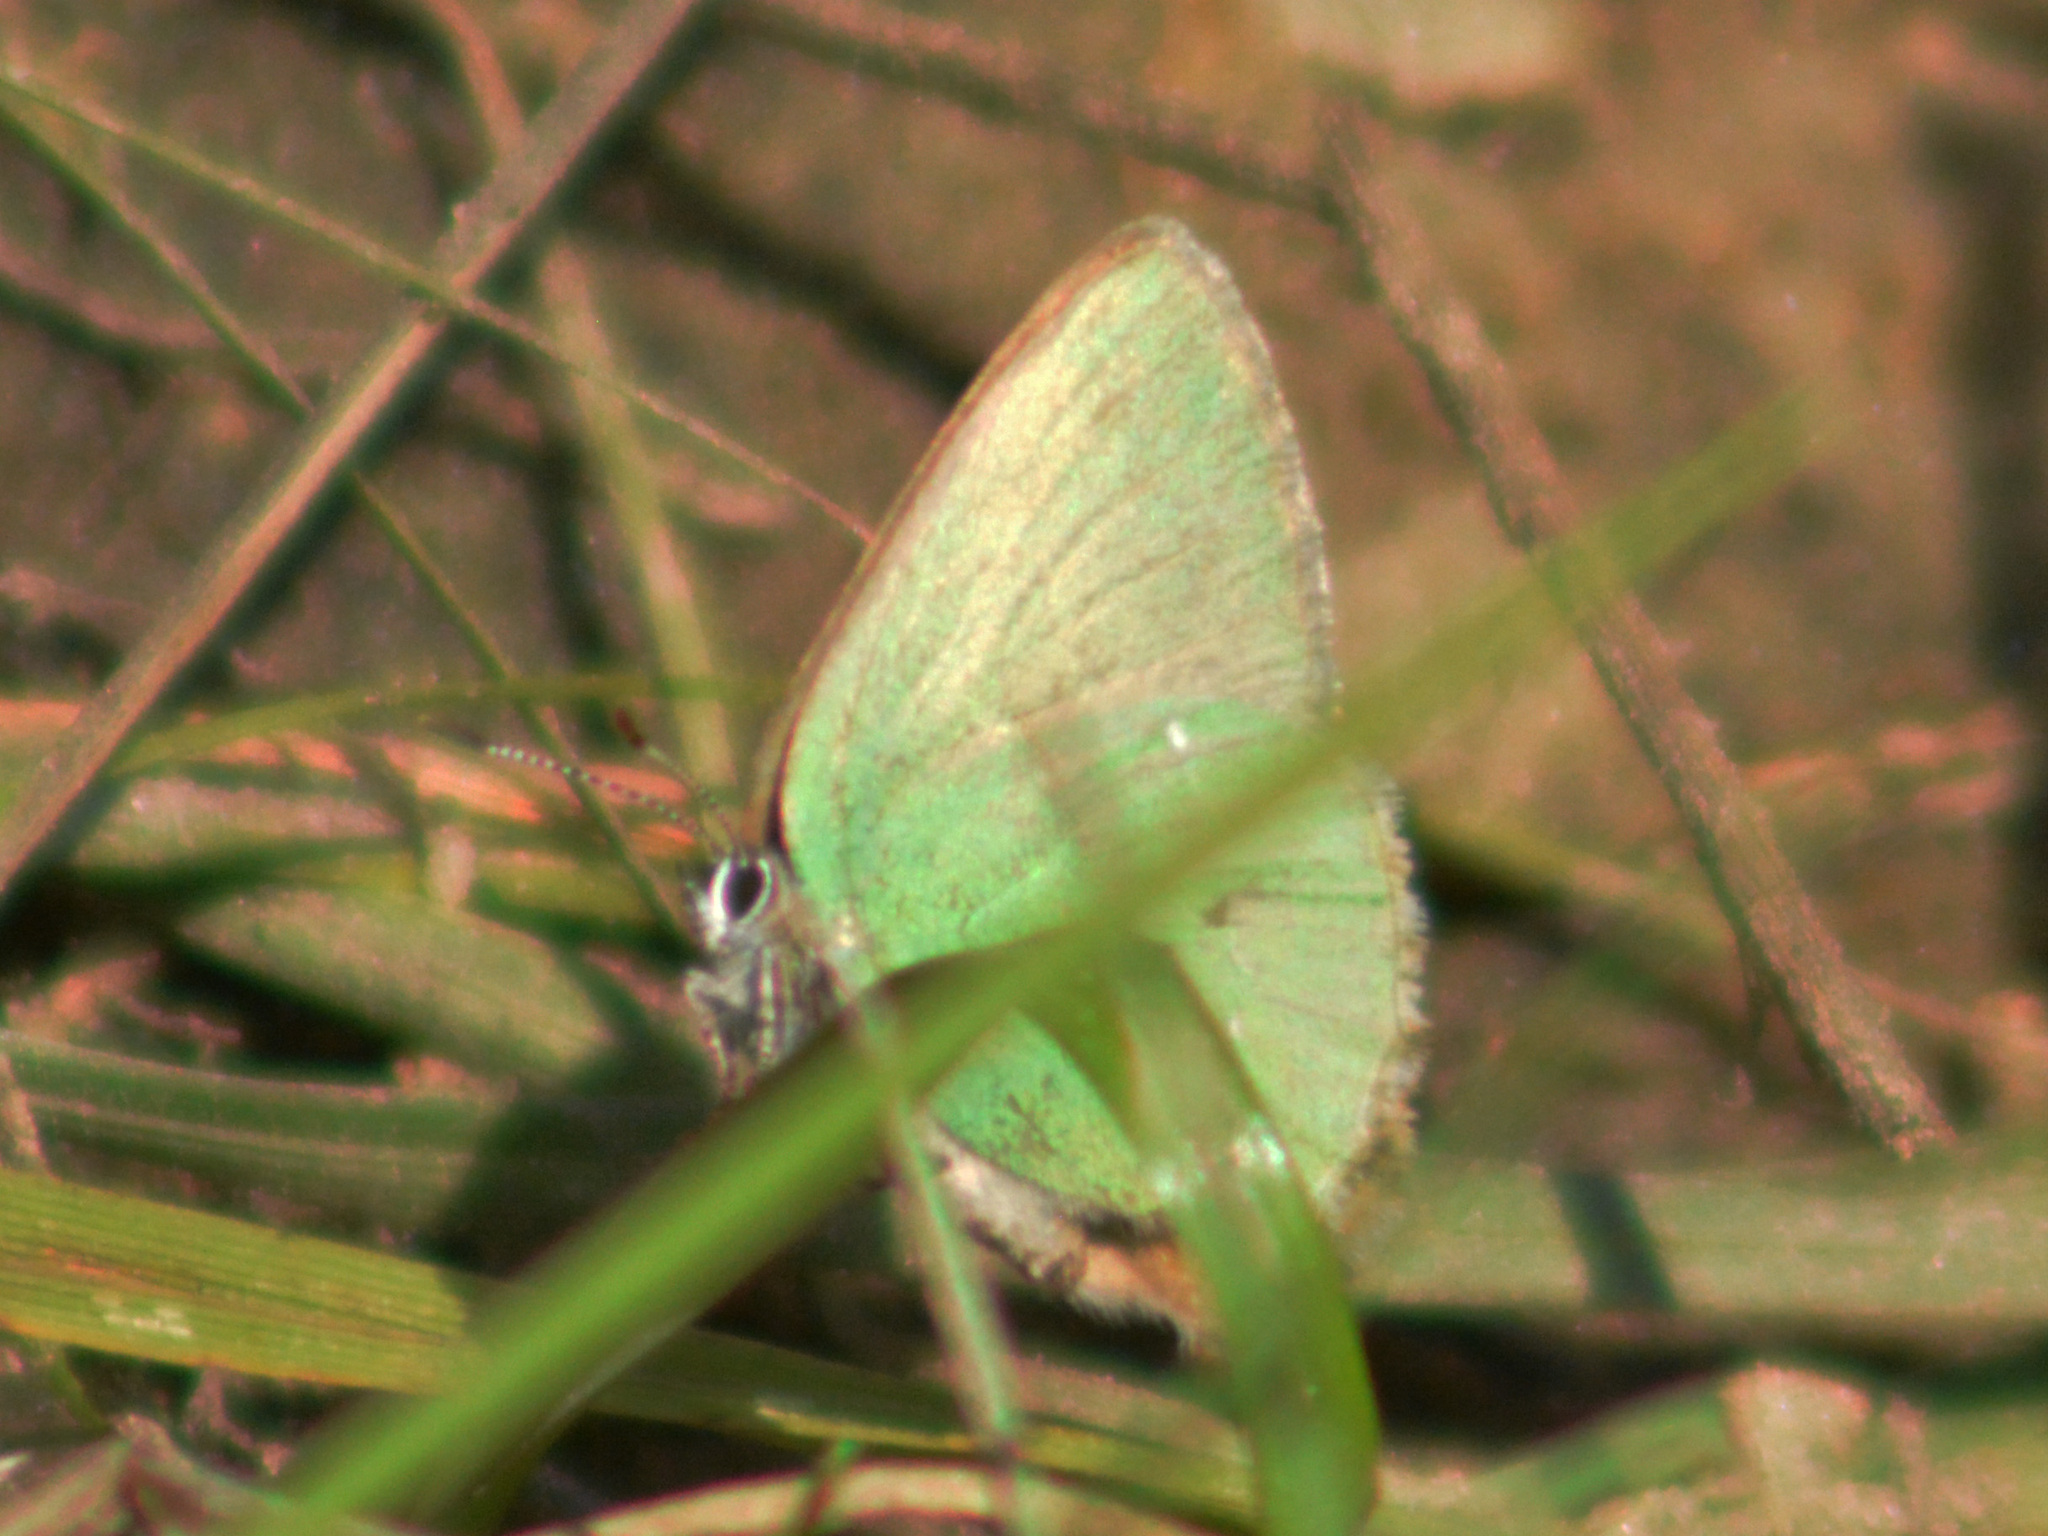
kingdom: Animalia
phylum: Arthropoda
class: Insecta
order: Lepidoptera
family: Lycaenidae
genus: Callophrys
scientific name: Callophrys rubi
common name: Green hairstreak
